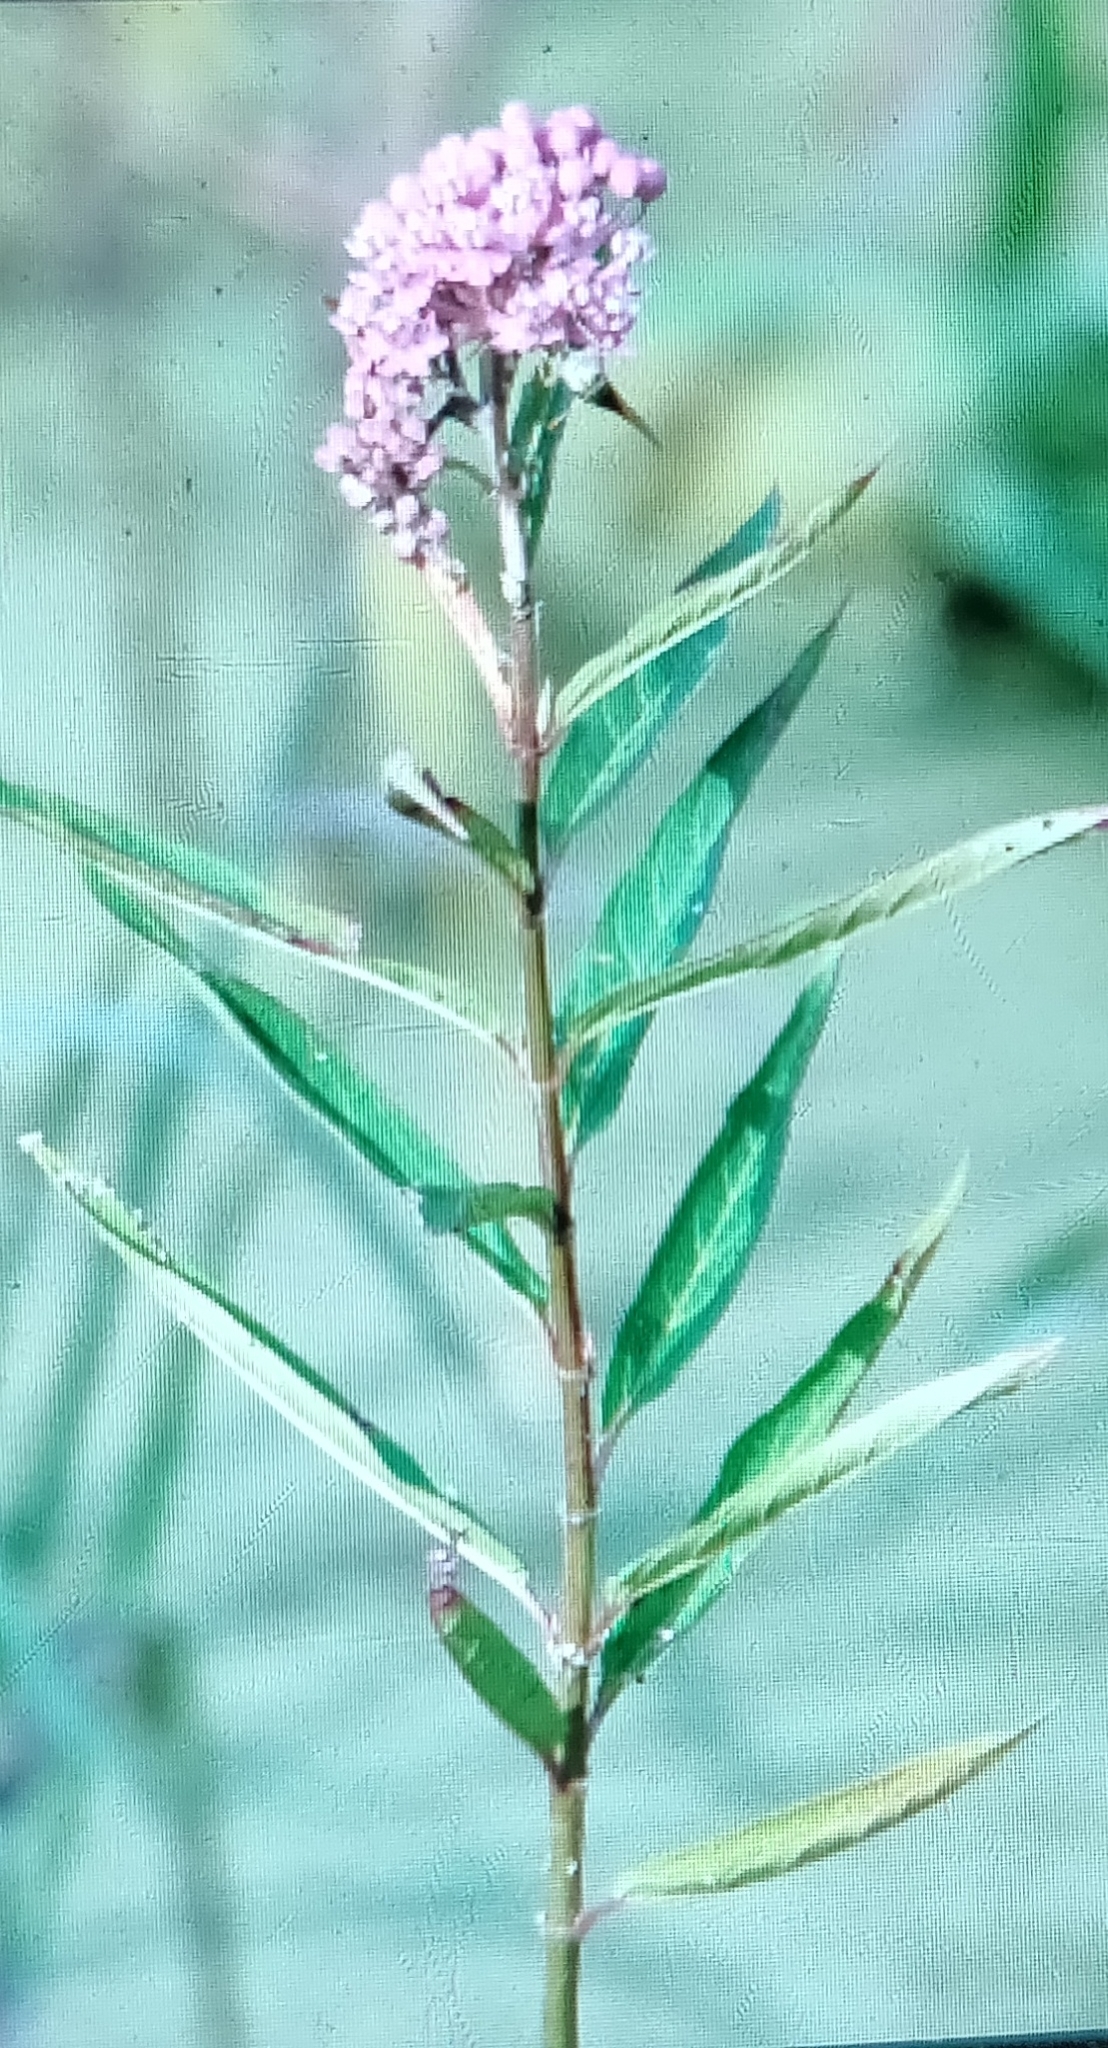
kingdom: Plantae
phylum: Tracheophyta
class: Magnoliopsida
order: Gentianales
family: Apocynaceae
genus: Asclepias
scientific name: Asclepias incarnata
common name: Swamp milkweed
